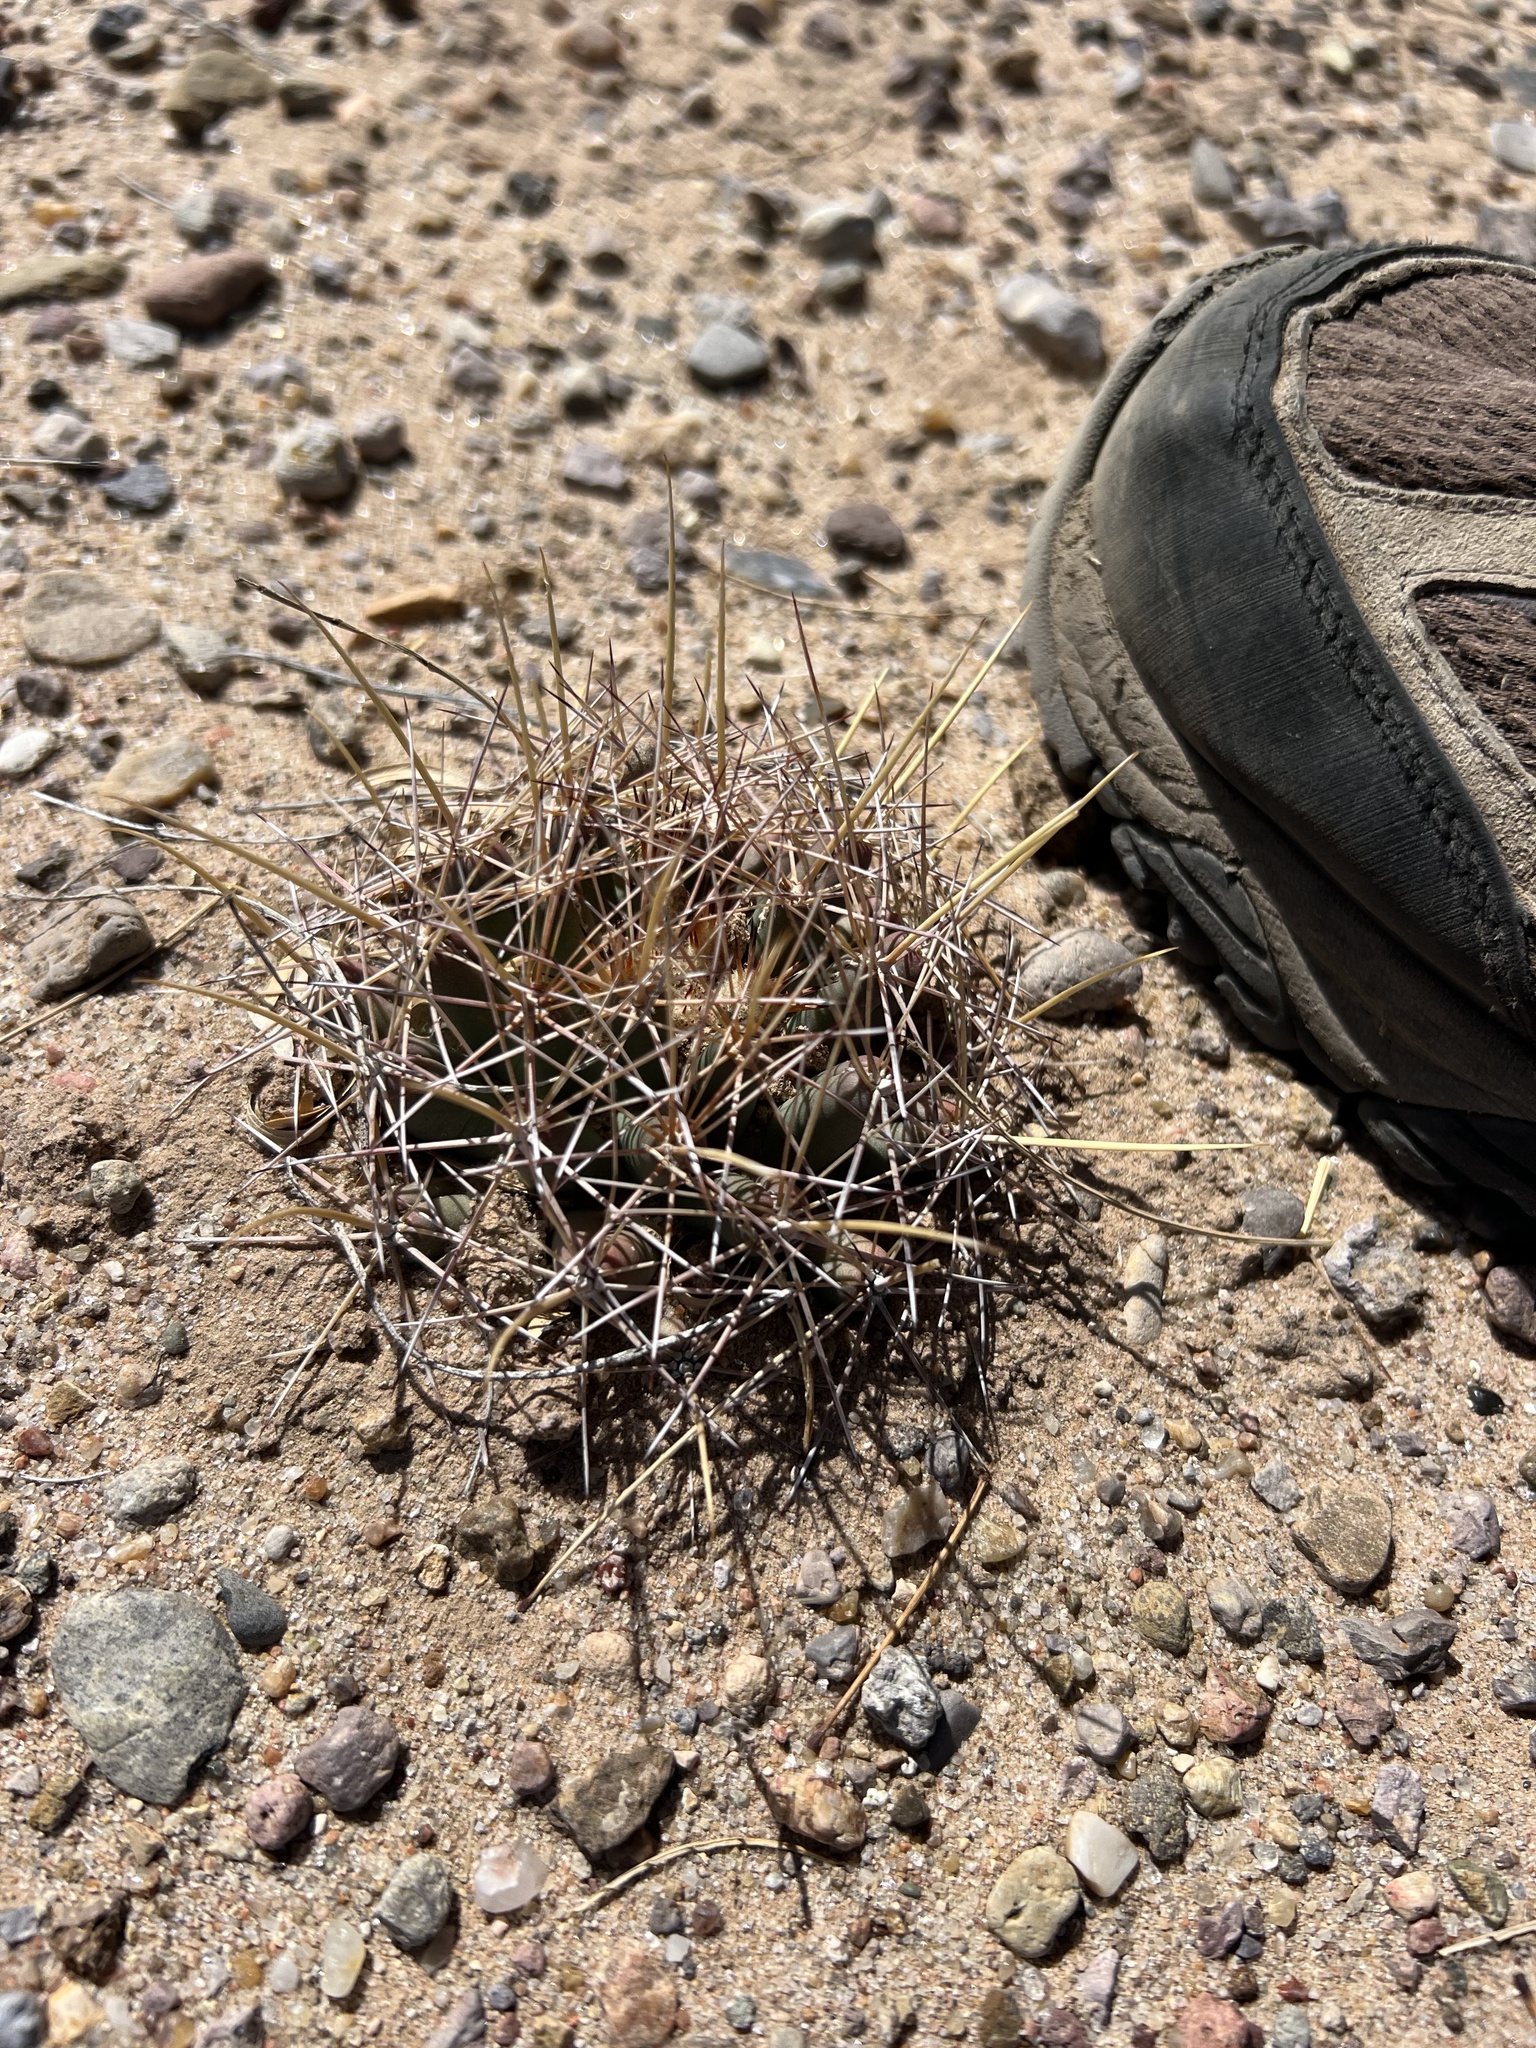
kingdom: Plantae
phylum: Tracheophyta
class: Magnoliopsida
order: Caryophyllales
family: Cactaceae
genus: Coryphantha
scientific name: Coryphantha robustispina
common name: Pima pineapple cactus
